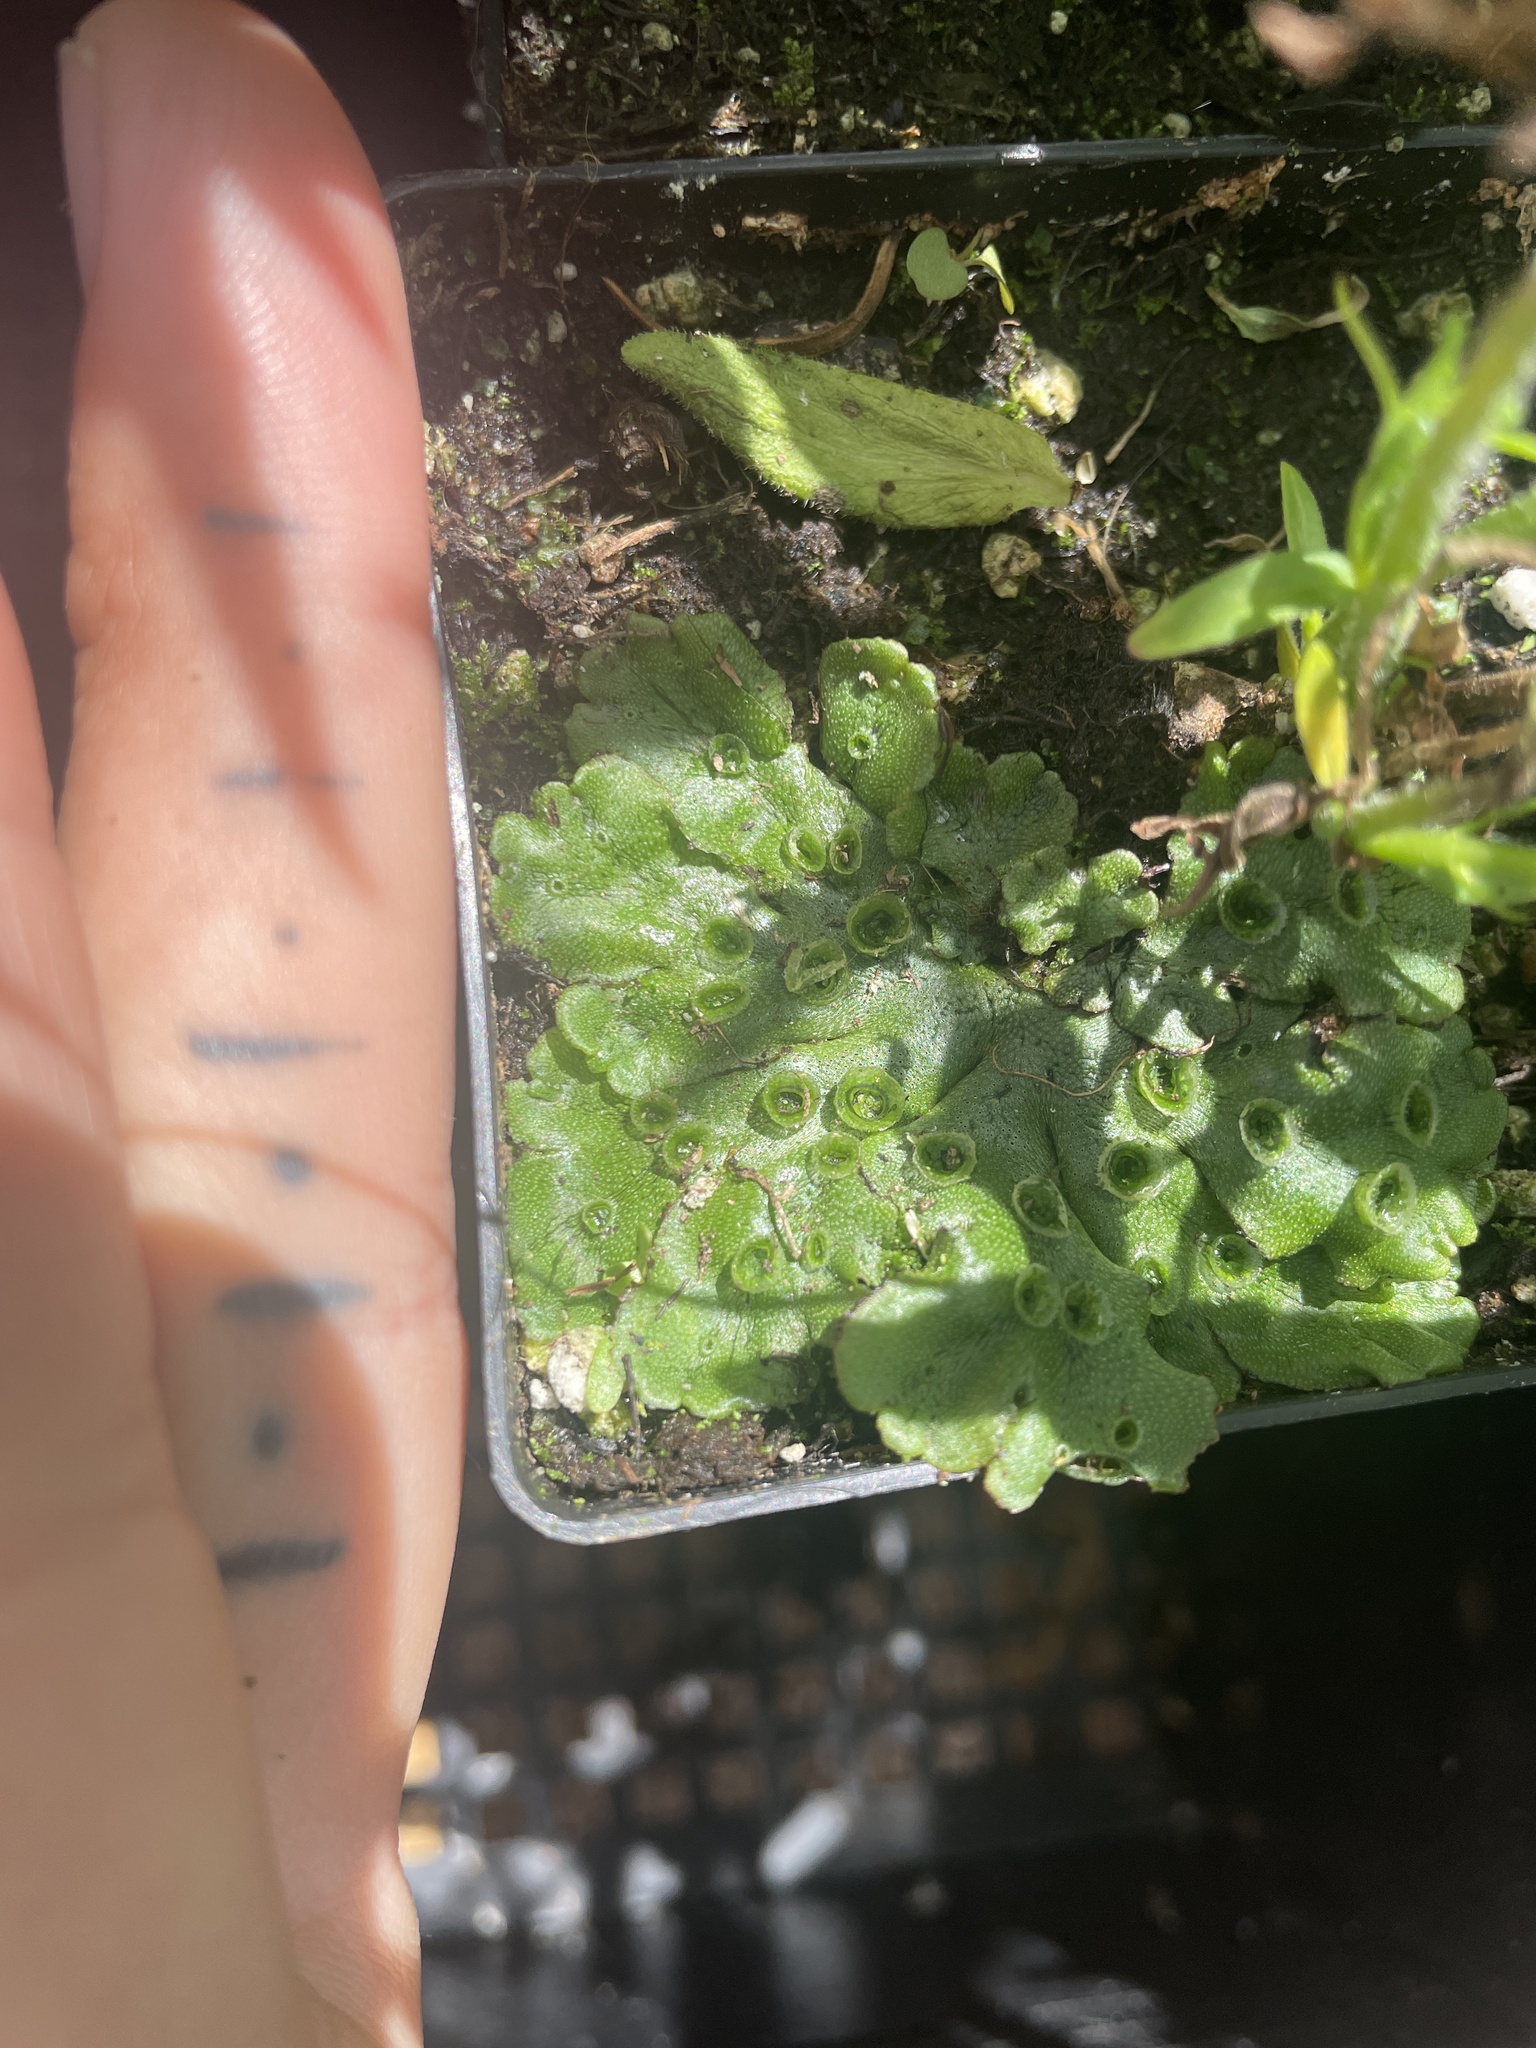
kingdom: Plantae
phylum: Marchantiophyta
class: Marchantiopsida
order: Marchantiales
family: Marchantiaceae
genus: Marchantia
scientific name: Marchantia polymorpha
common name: Common liverwort
